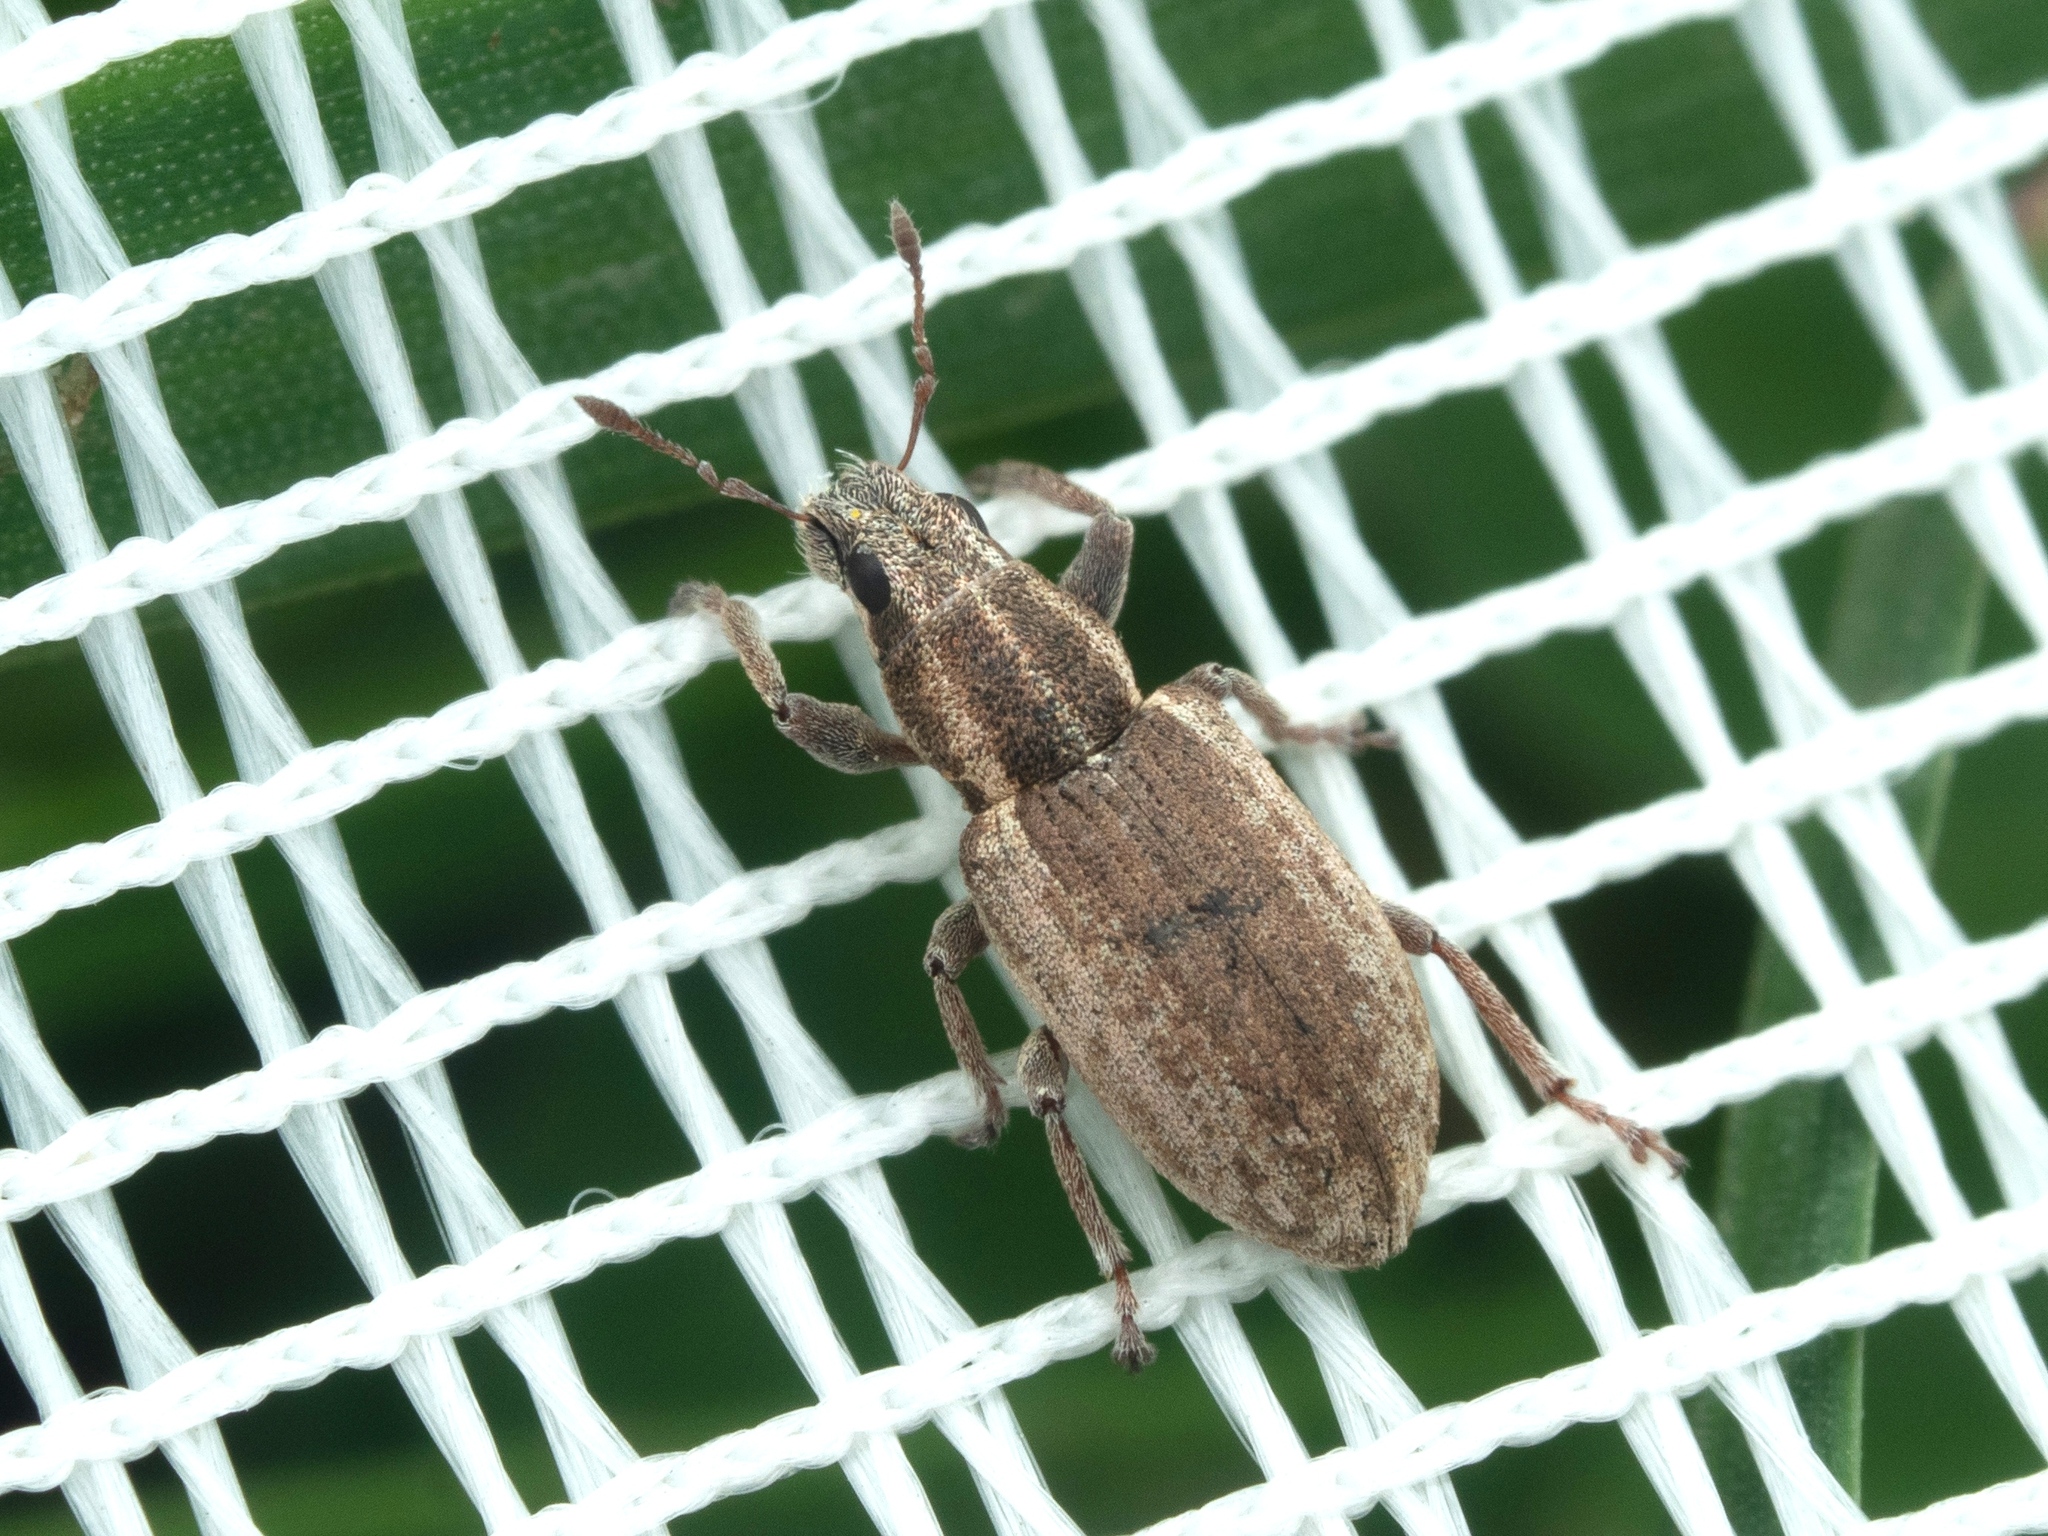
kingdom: Animalia
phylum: Arthropoda
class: Insecta
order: Coleoptera
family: Curculionidae
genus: Sitona
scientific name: Sitona humeralis
